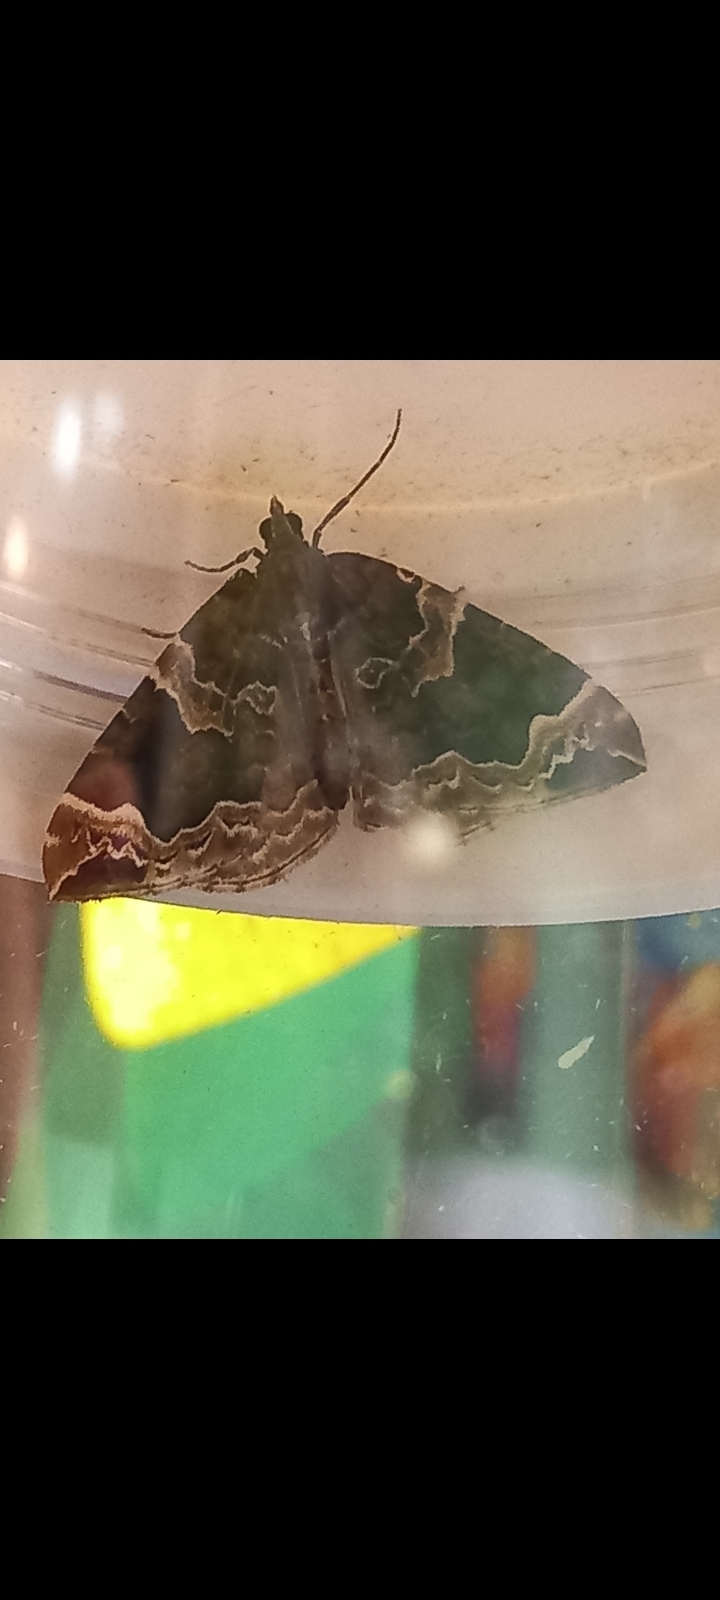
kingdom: Animalia
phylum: Arthropoda
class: Insecta
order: Lepidoptera
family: Geometridae
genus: Eulithis
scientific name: Eulithis prunata
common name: Phoenix
